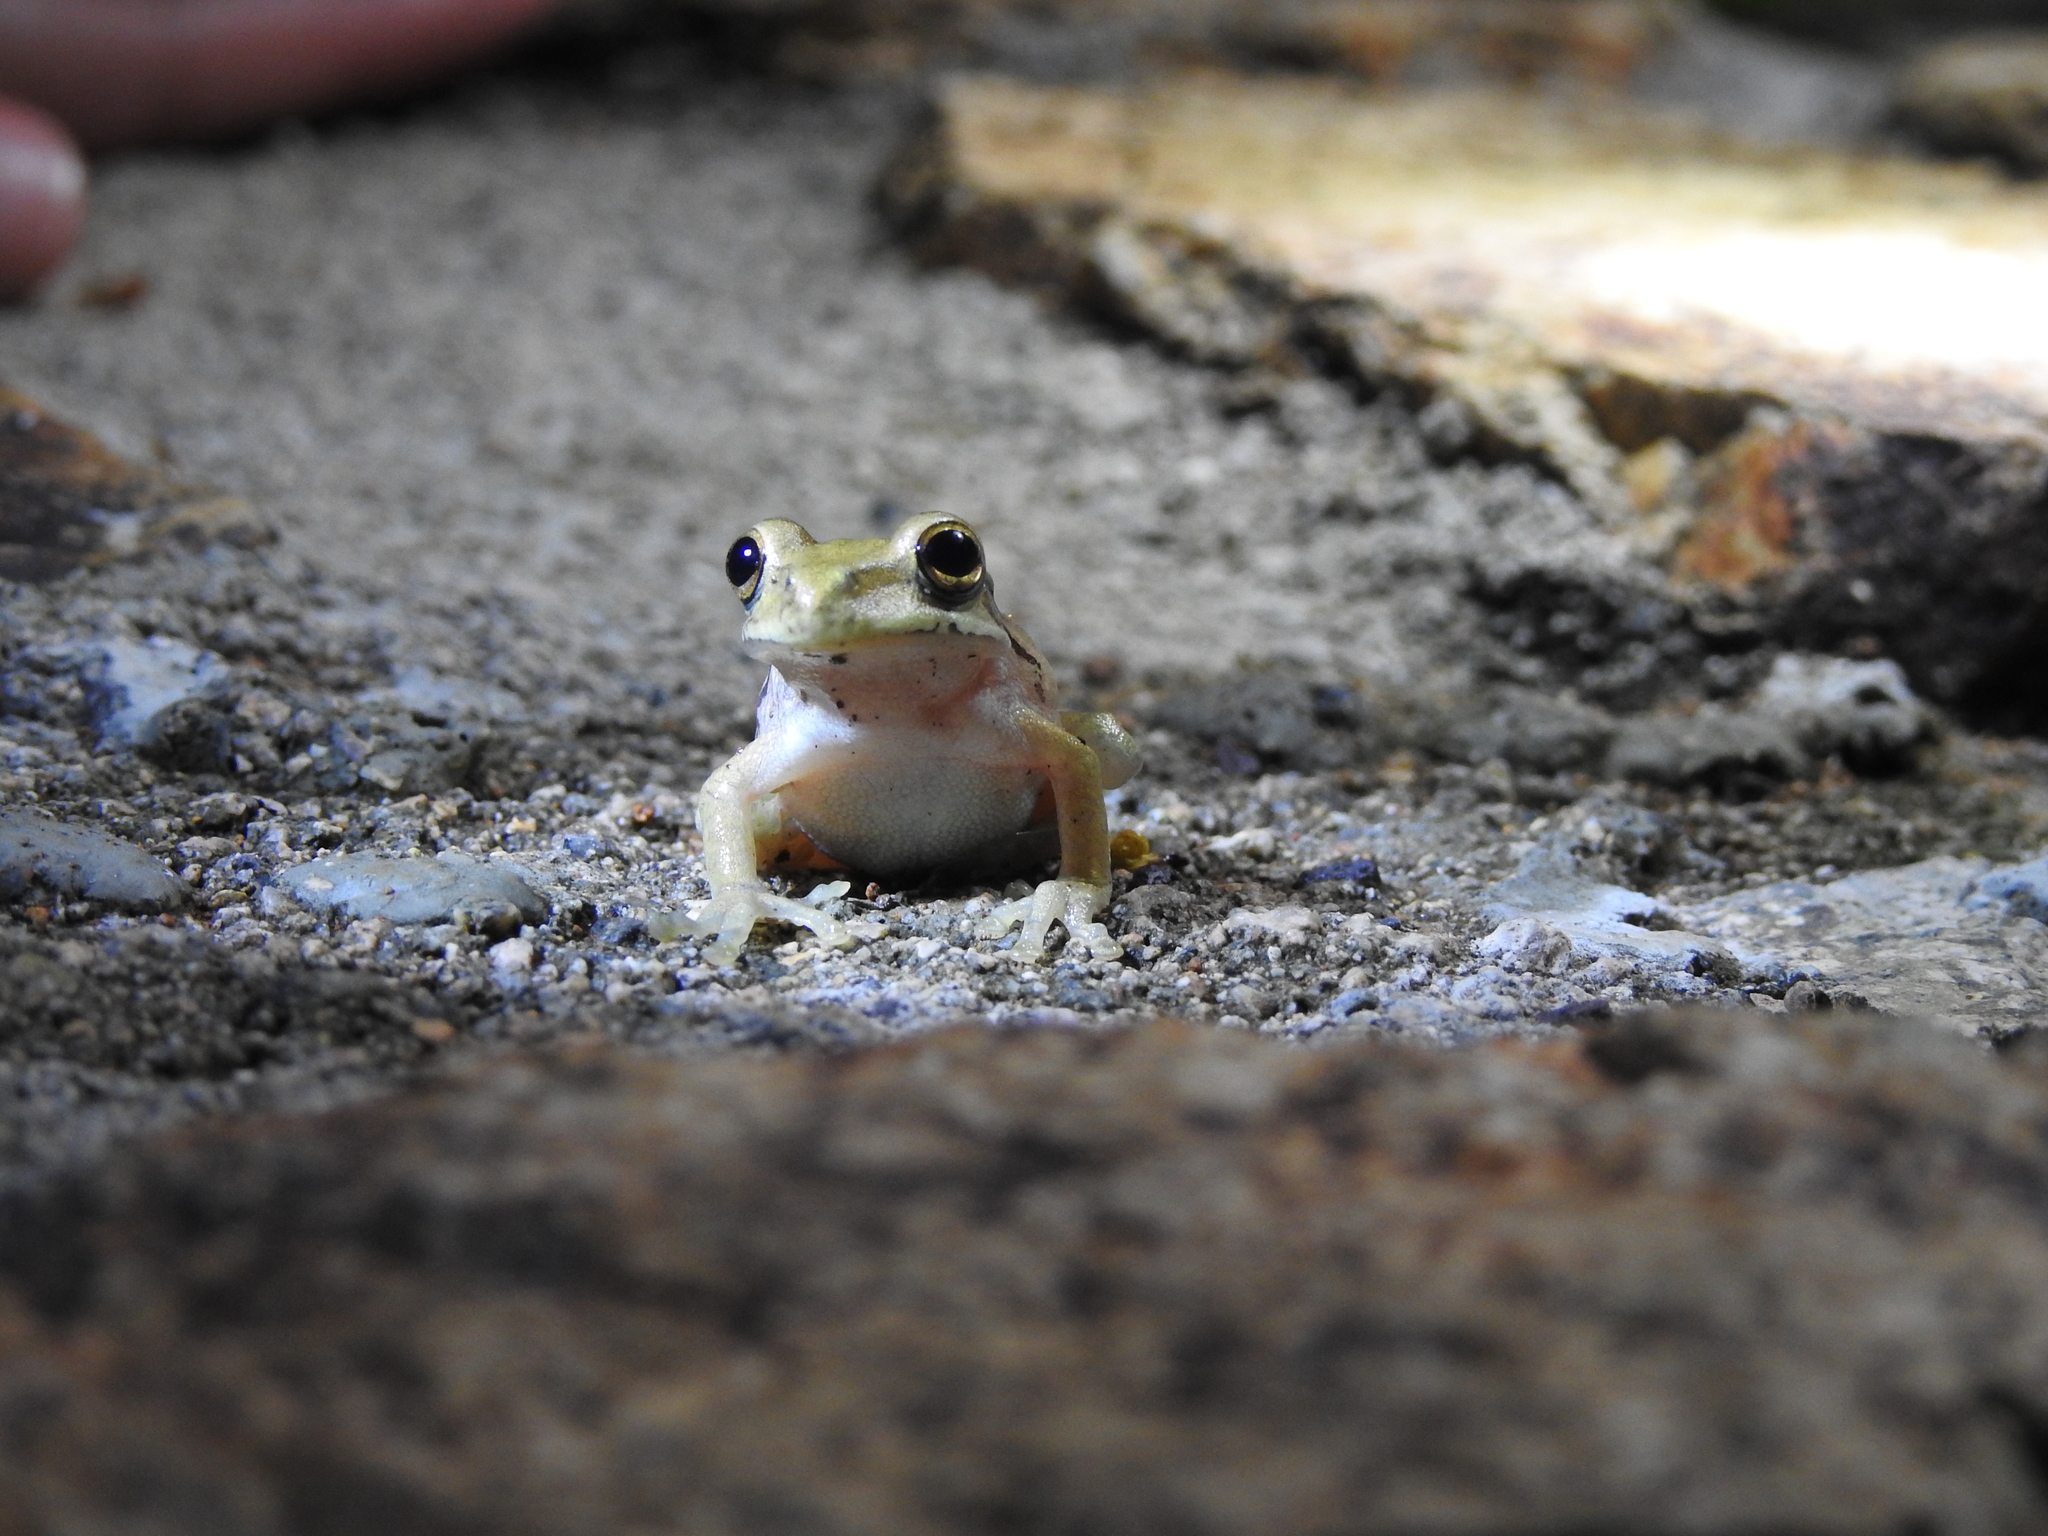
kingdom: Animalia
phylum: Chordata
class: Amphibia
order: Anura
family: Hylidae
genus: Smilisca
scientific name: Smilisca baudinii
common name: Mexican smilisca
